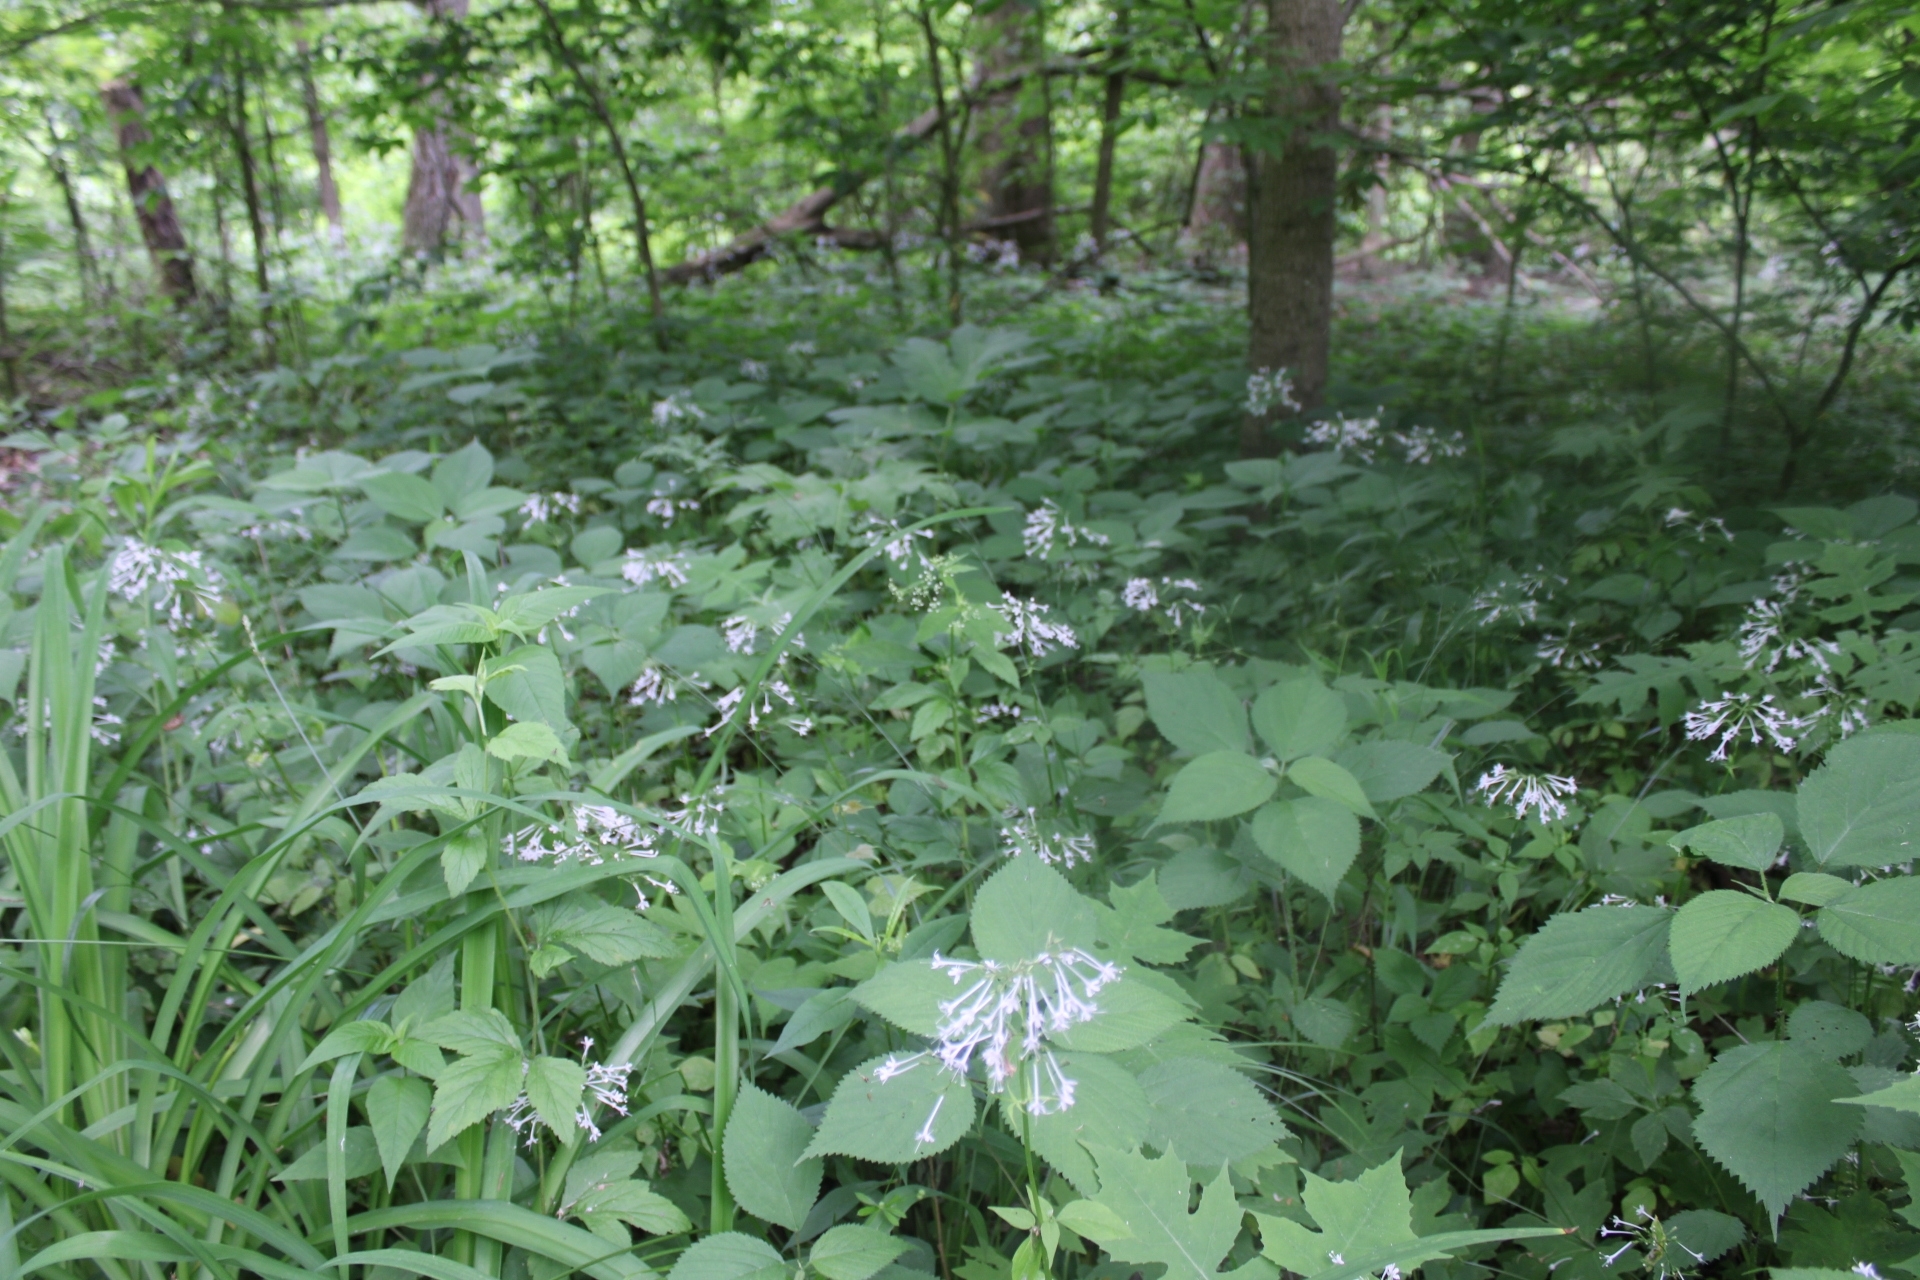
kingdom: Plantae
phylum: Tracheophyta
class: Magnoliopsida
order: Dipsacales
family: Caprifoliaceae
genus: Valeriana
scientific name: Valeriana pauciflora
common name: Long-tube valeriana
